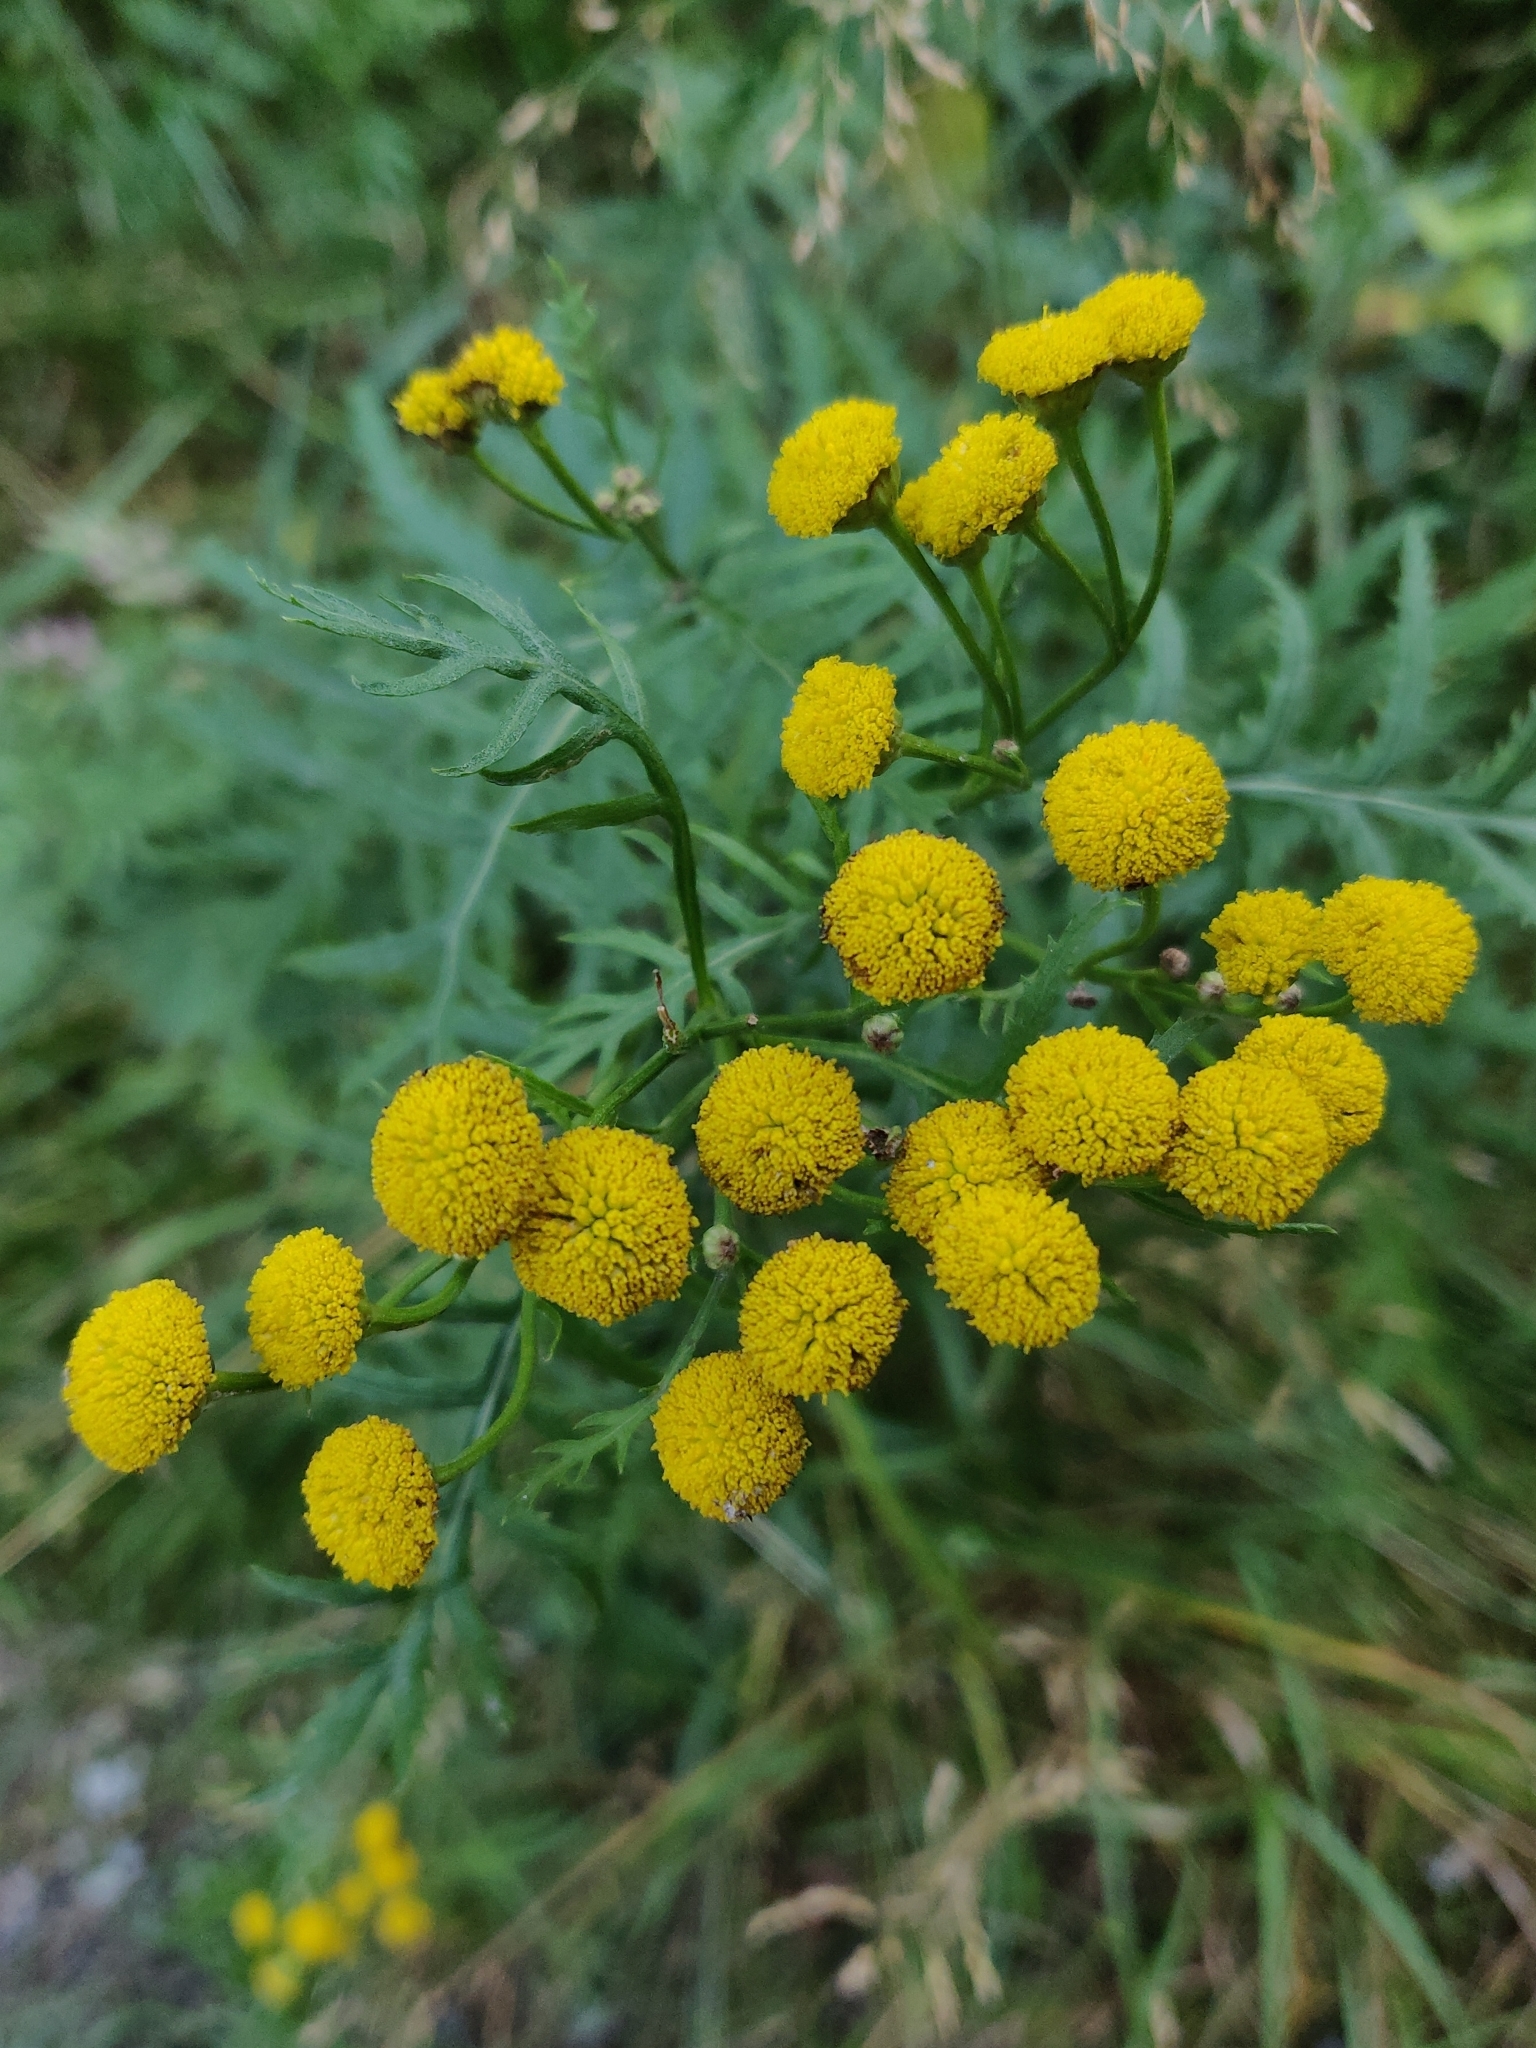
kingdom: Plantae
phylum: Tracheophyta
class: Magnoliopsida
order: Asterales
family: Asteraceae
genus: Tanacetum
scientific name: Tanacetum vulgare
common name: Common tansy
